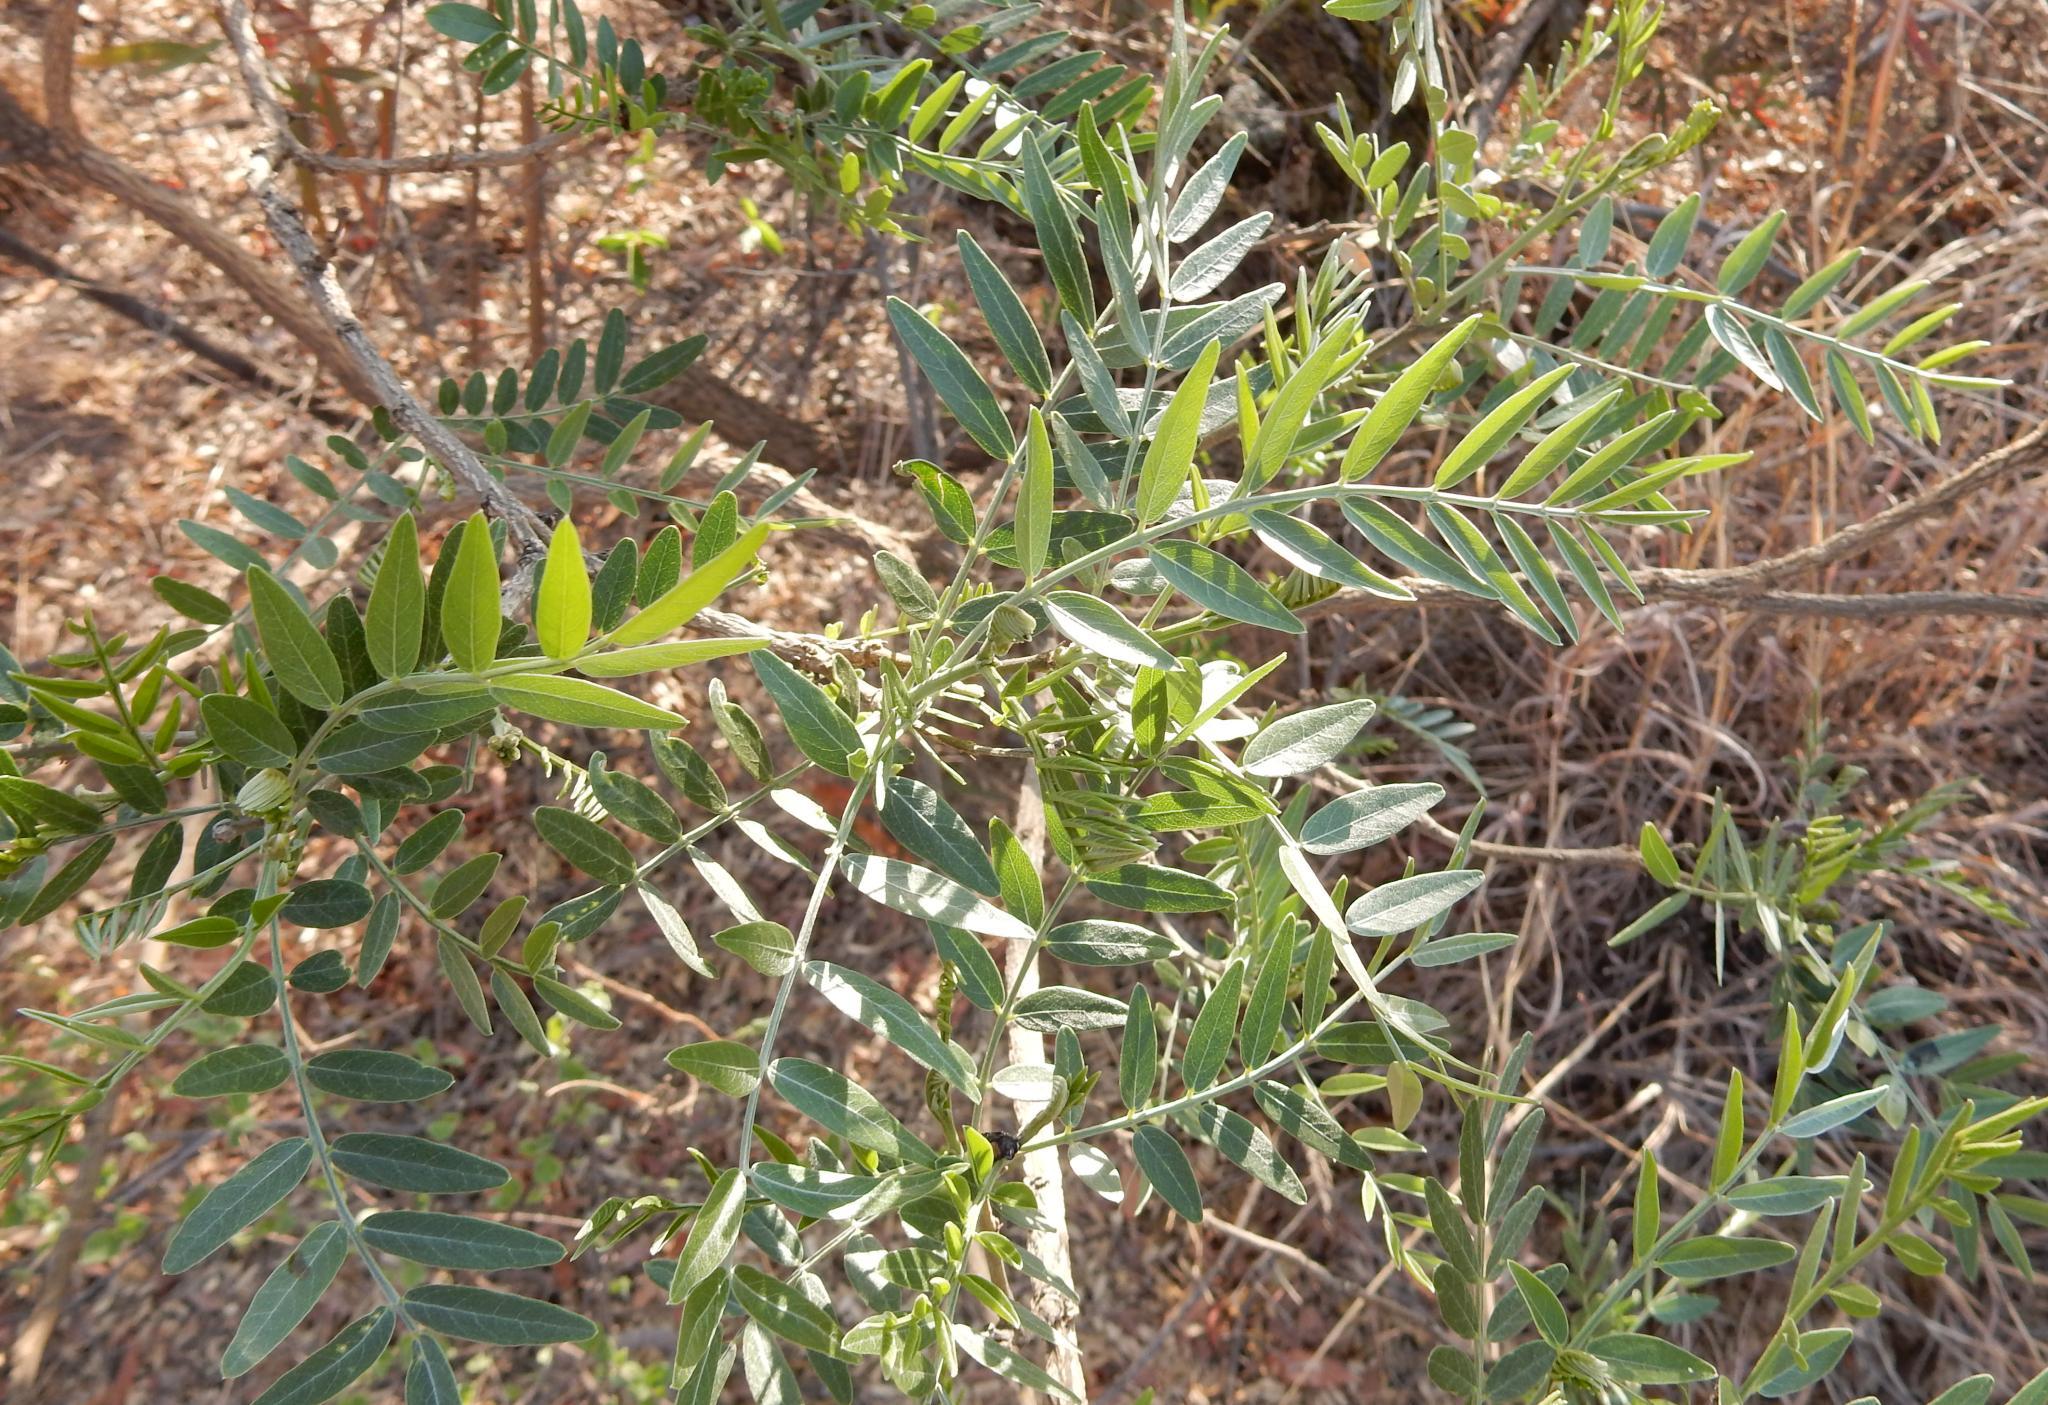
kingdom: Plantae
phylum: Tracheophyta
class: Magnoliopsida
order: Fabales
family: Fabaceae
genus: Mundulea
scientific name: Mundulea sericea
